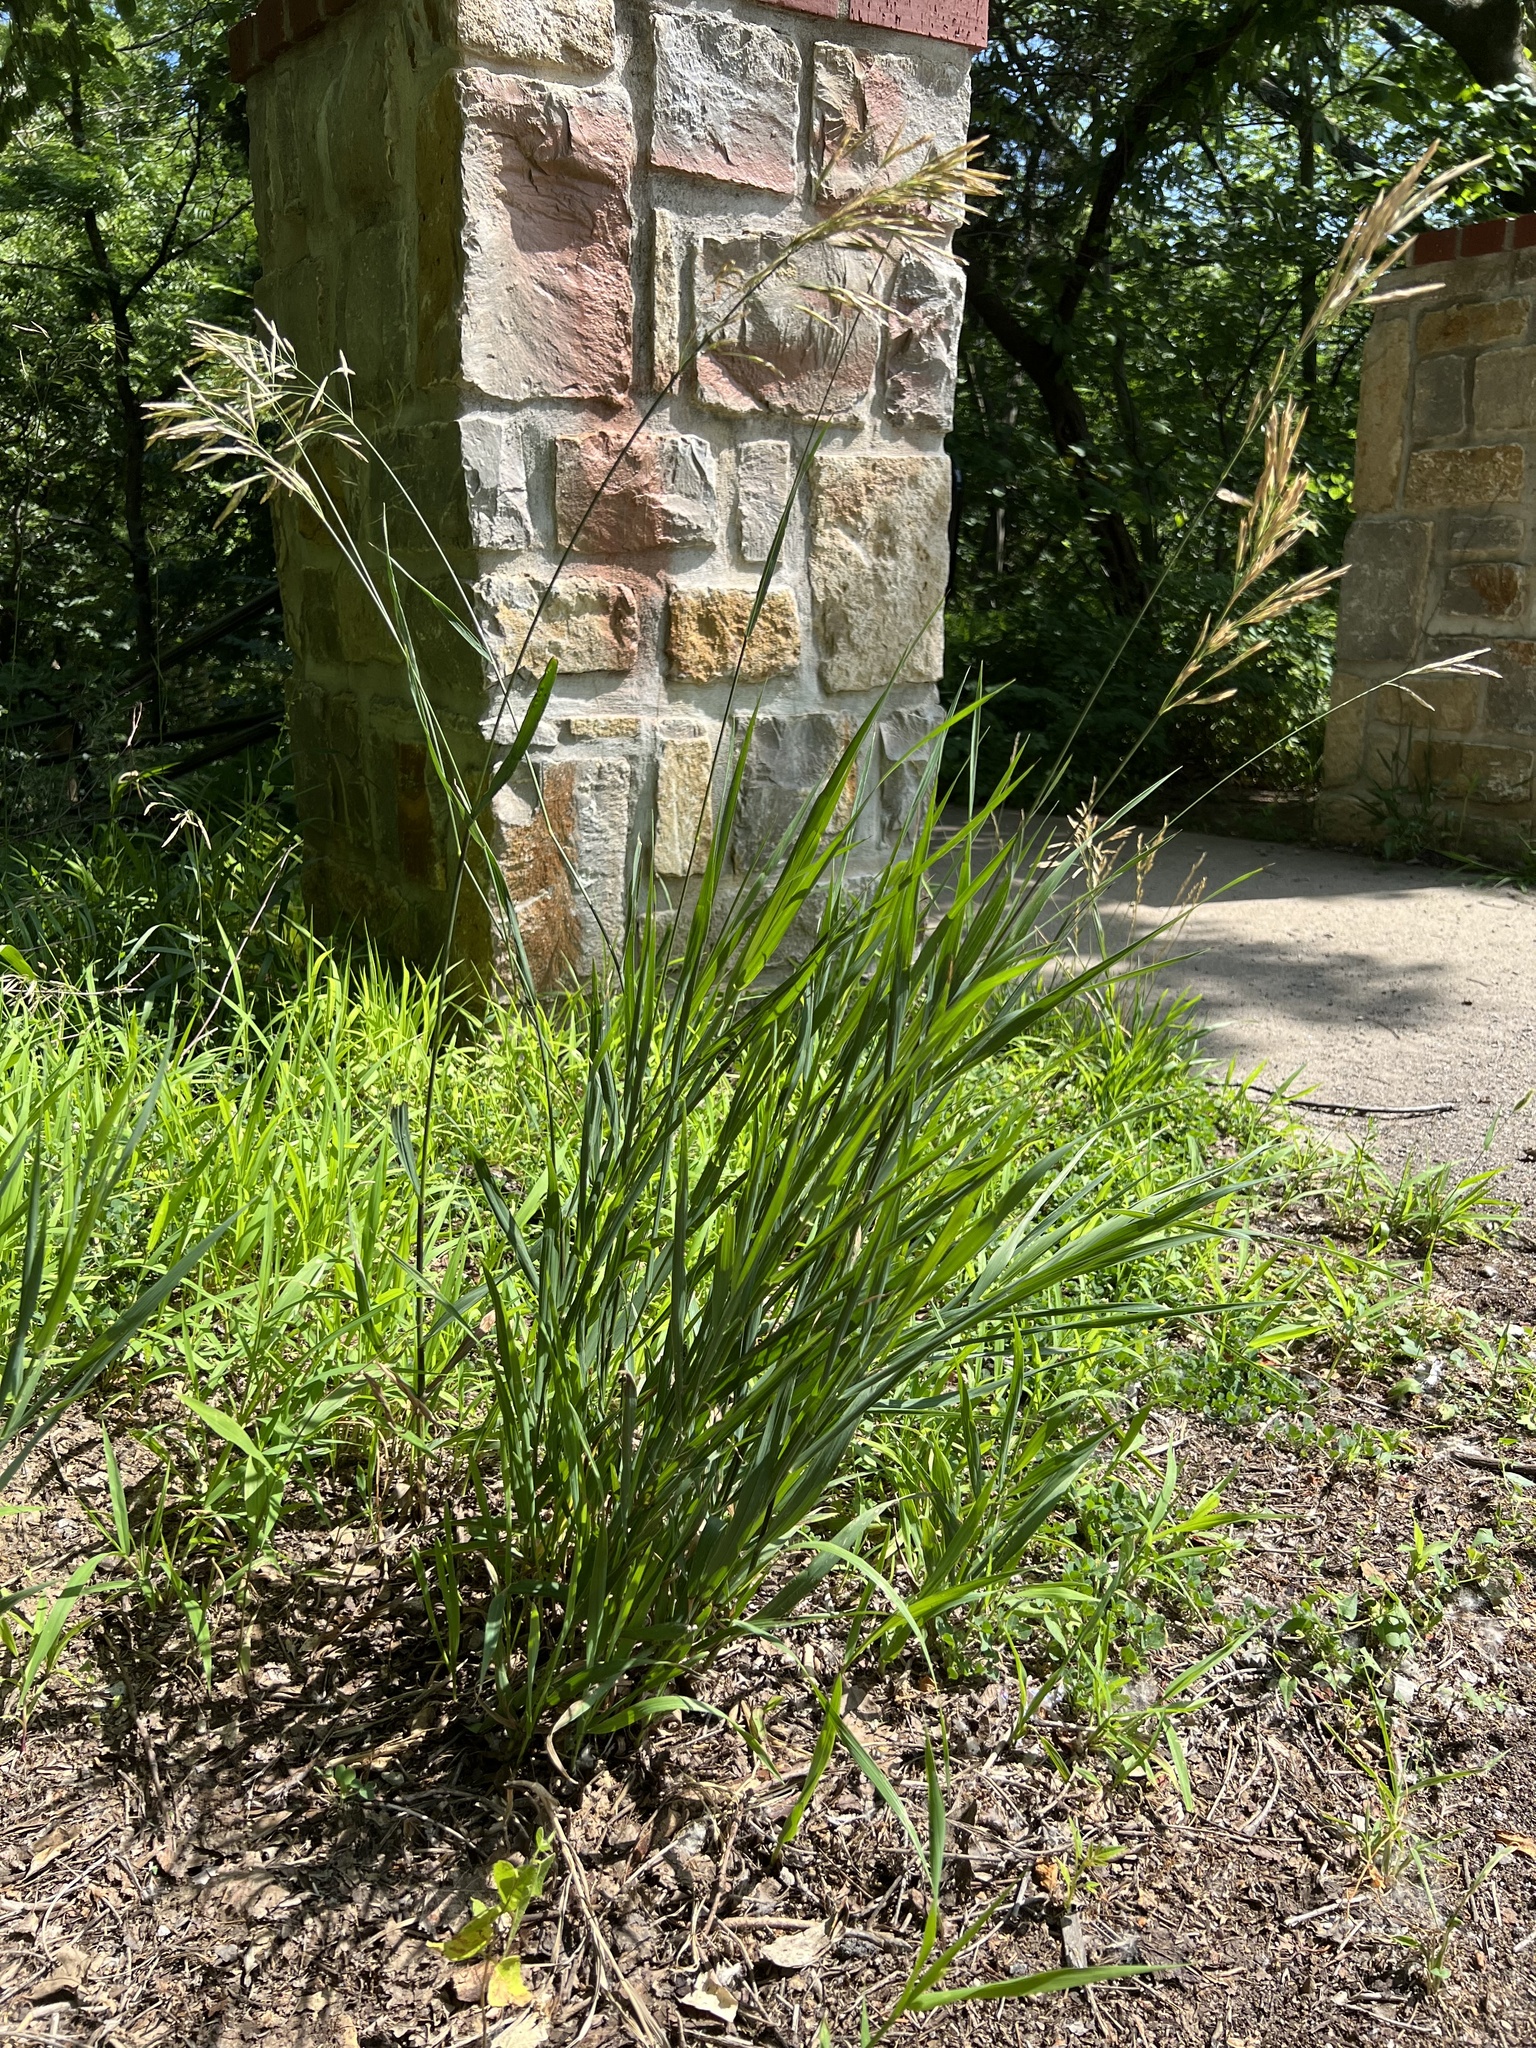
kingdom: Plantae
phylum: Tracheophyta
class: Liliopsida
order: Poales
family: Poaceae
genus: Bromus
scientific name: Bromus inermis
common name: Smooth brome
